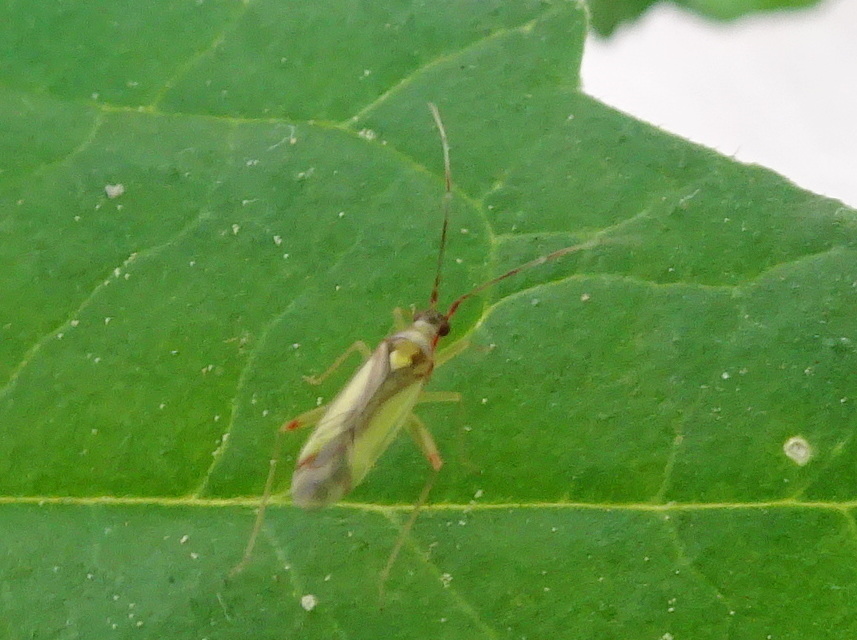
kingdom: Animalia
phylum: Arthropoda
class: Insecta
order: Hemiptera
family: Miridae
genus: Campyloneura
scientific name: Campyloneura virgula
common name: Predatory bug
